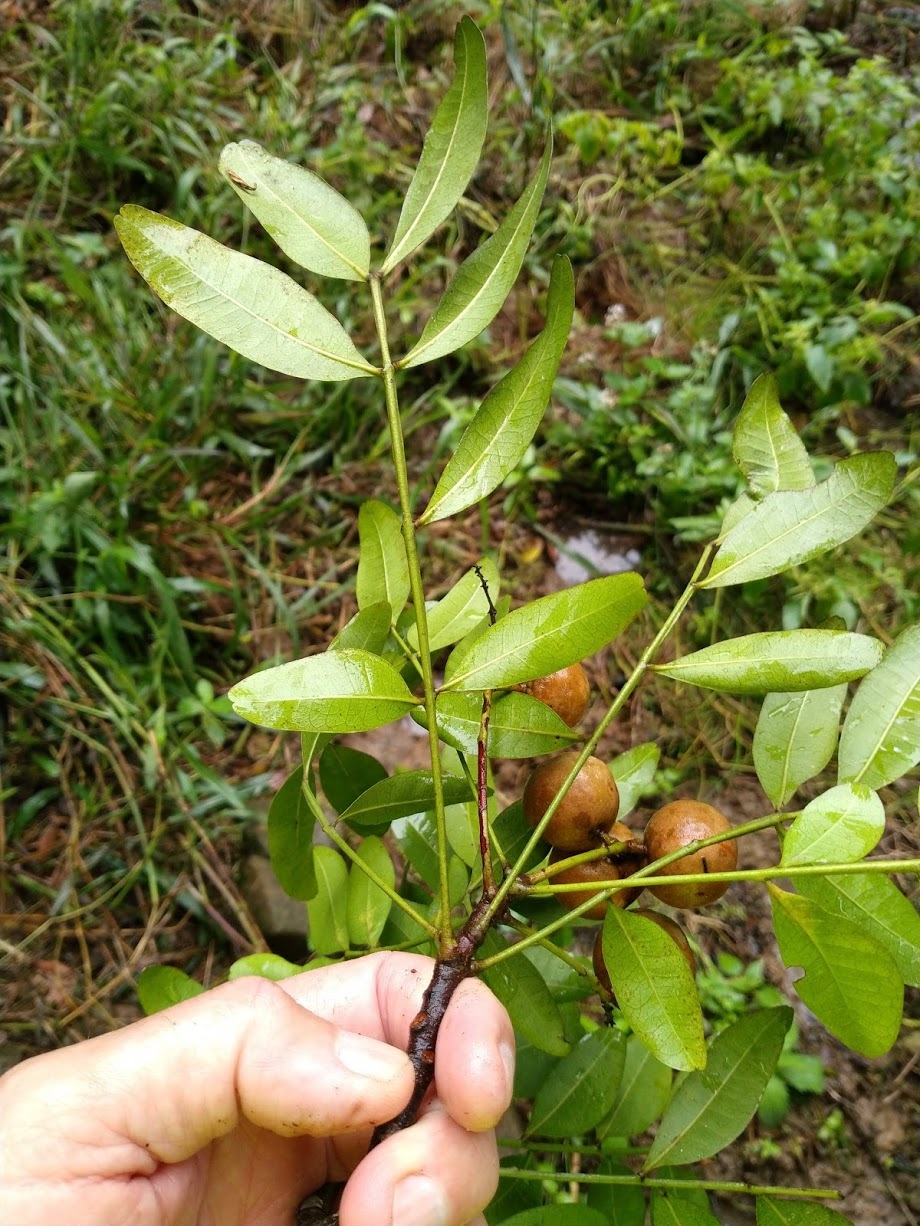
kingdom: Plantae
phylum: Tracheophyta
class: Magnoliopsida
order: Sapindales
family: Meliaceae
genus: Owenia
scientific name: Owenia venosa
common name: Crow's-apple
